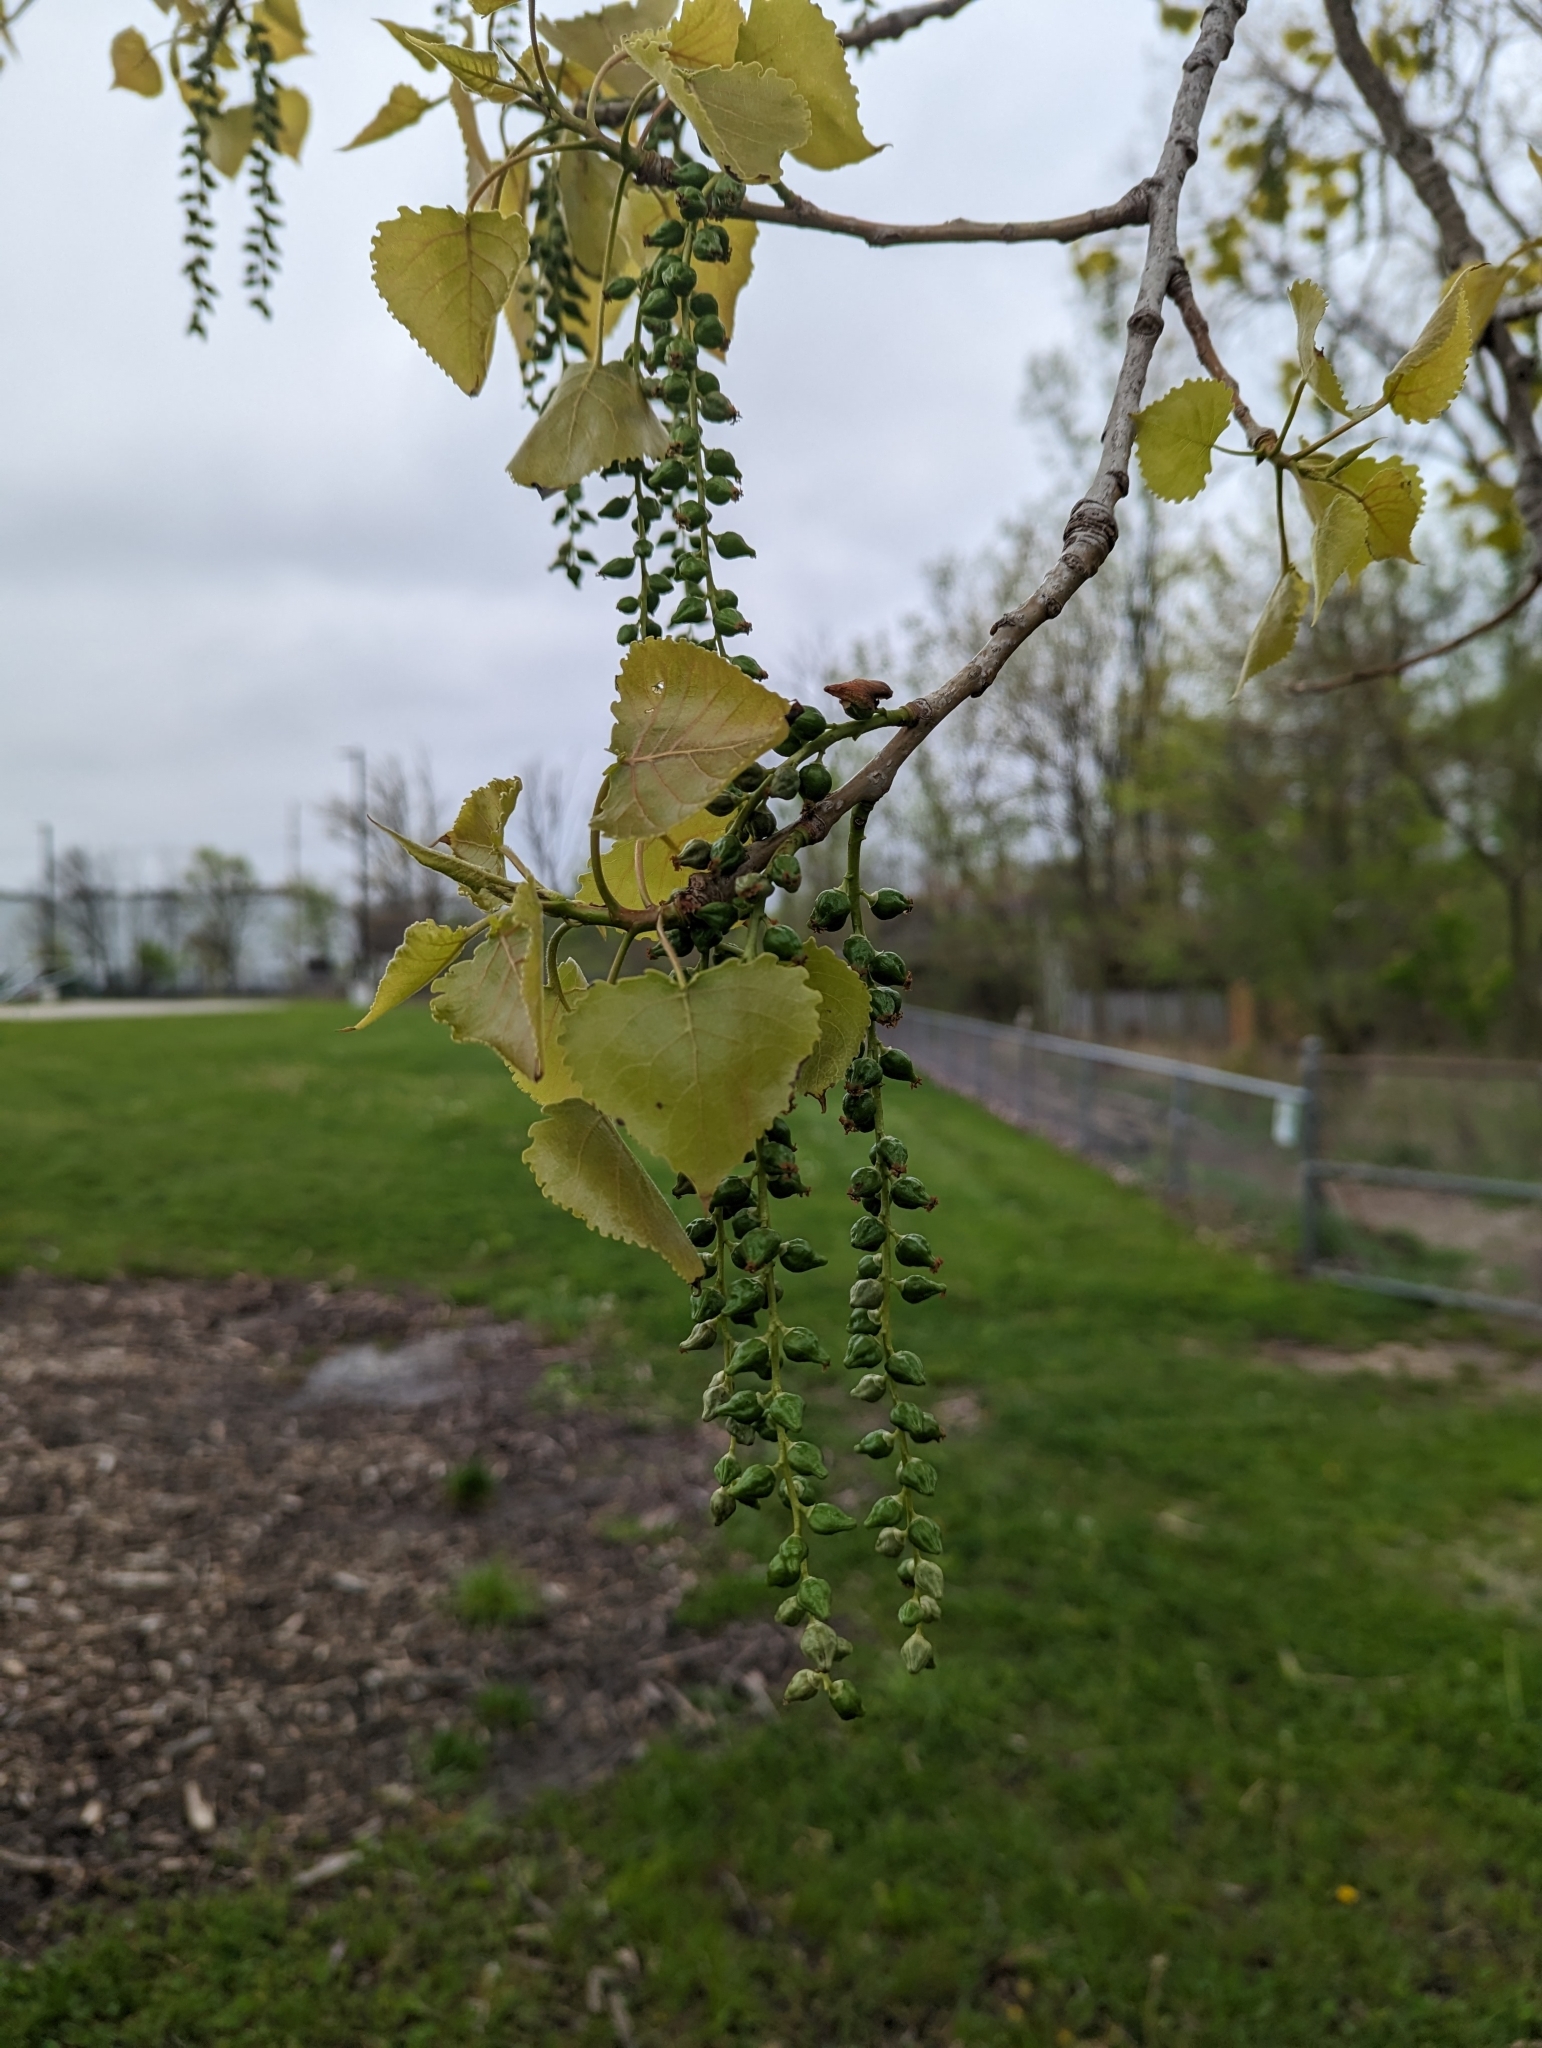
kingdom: Plantae
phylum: Tracheophyta
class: Magnoliopsida
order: Malpighiales
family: Salicaceae
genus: Populus
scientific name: Populus deltoides
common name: Eastern cottonwood
